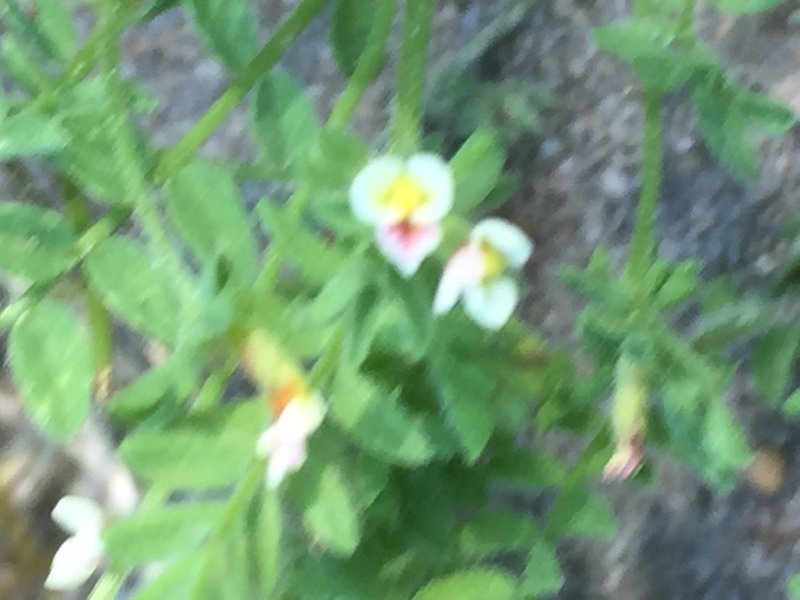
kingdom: Plantae
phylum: Tracheophyta
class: Magnoliopsida
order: Fabales
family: Fabaceae
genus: Ornithopus
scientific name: Ornithopus perpusillus
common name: Bird's-foot
